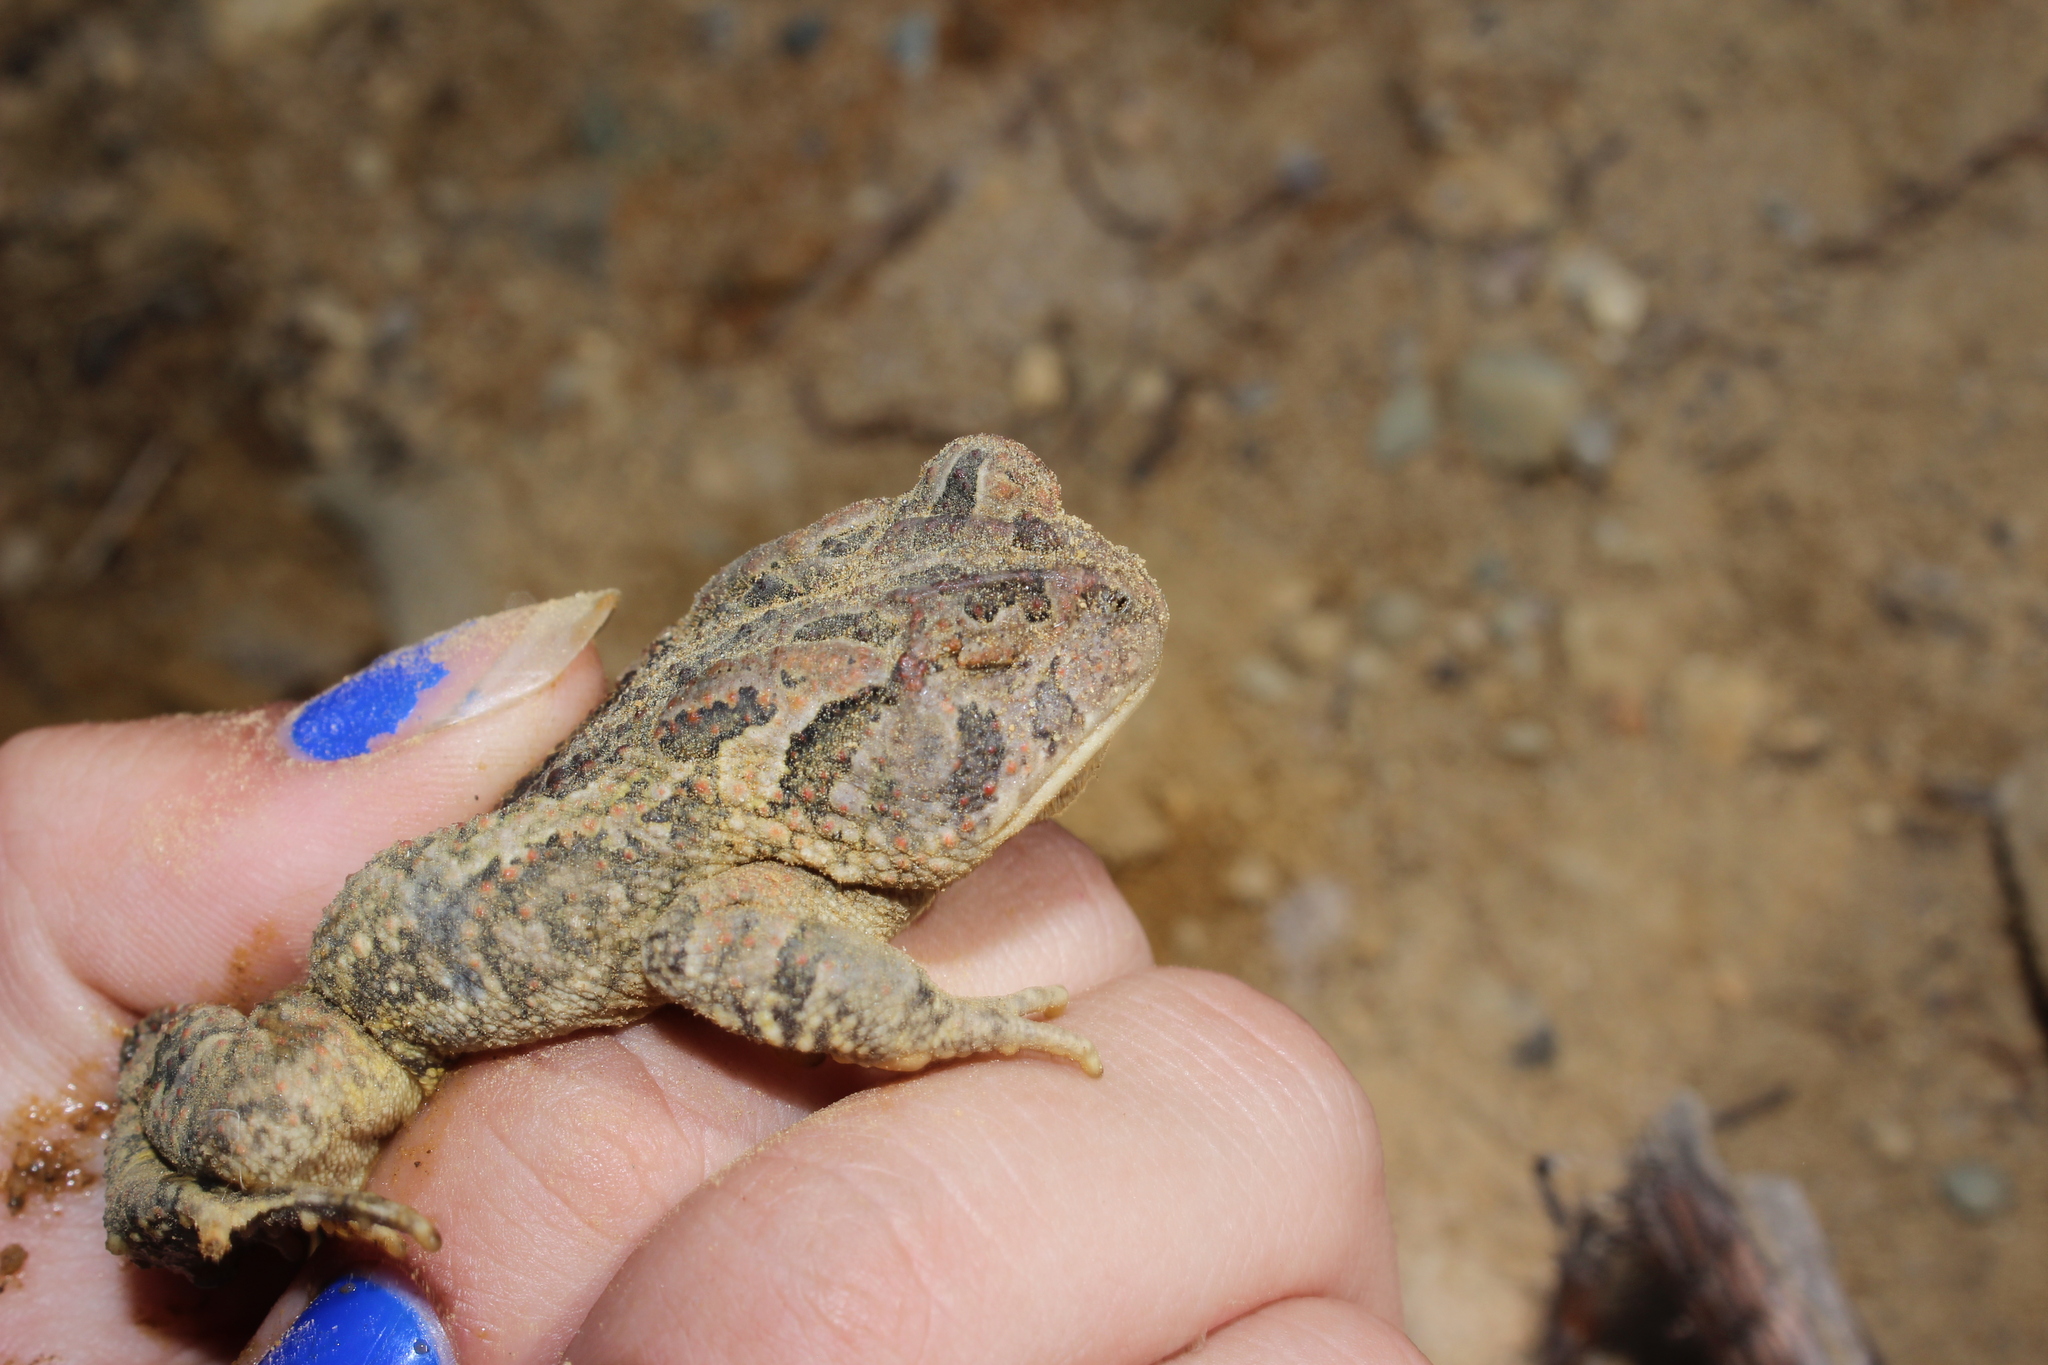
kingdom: Animalia
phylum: Chordata
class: Amphibia
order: Anura
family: Bufonidae
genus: Anaxyrus
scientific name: Anaxyrus fowleri
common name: Fowler's toad
